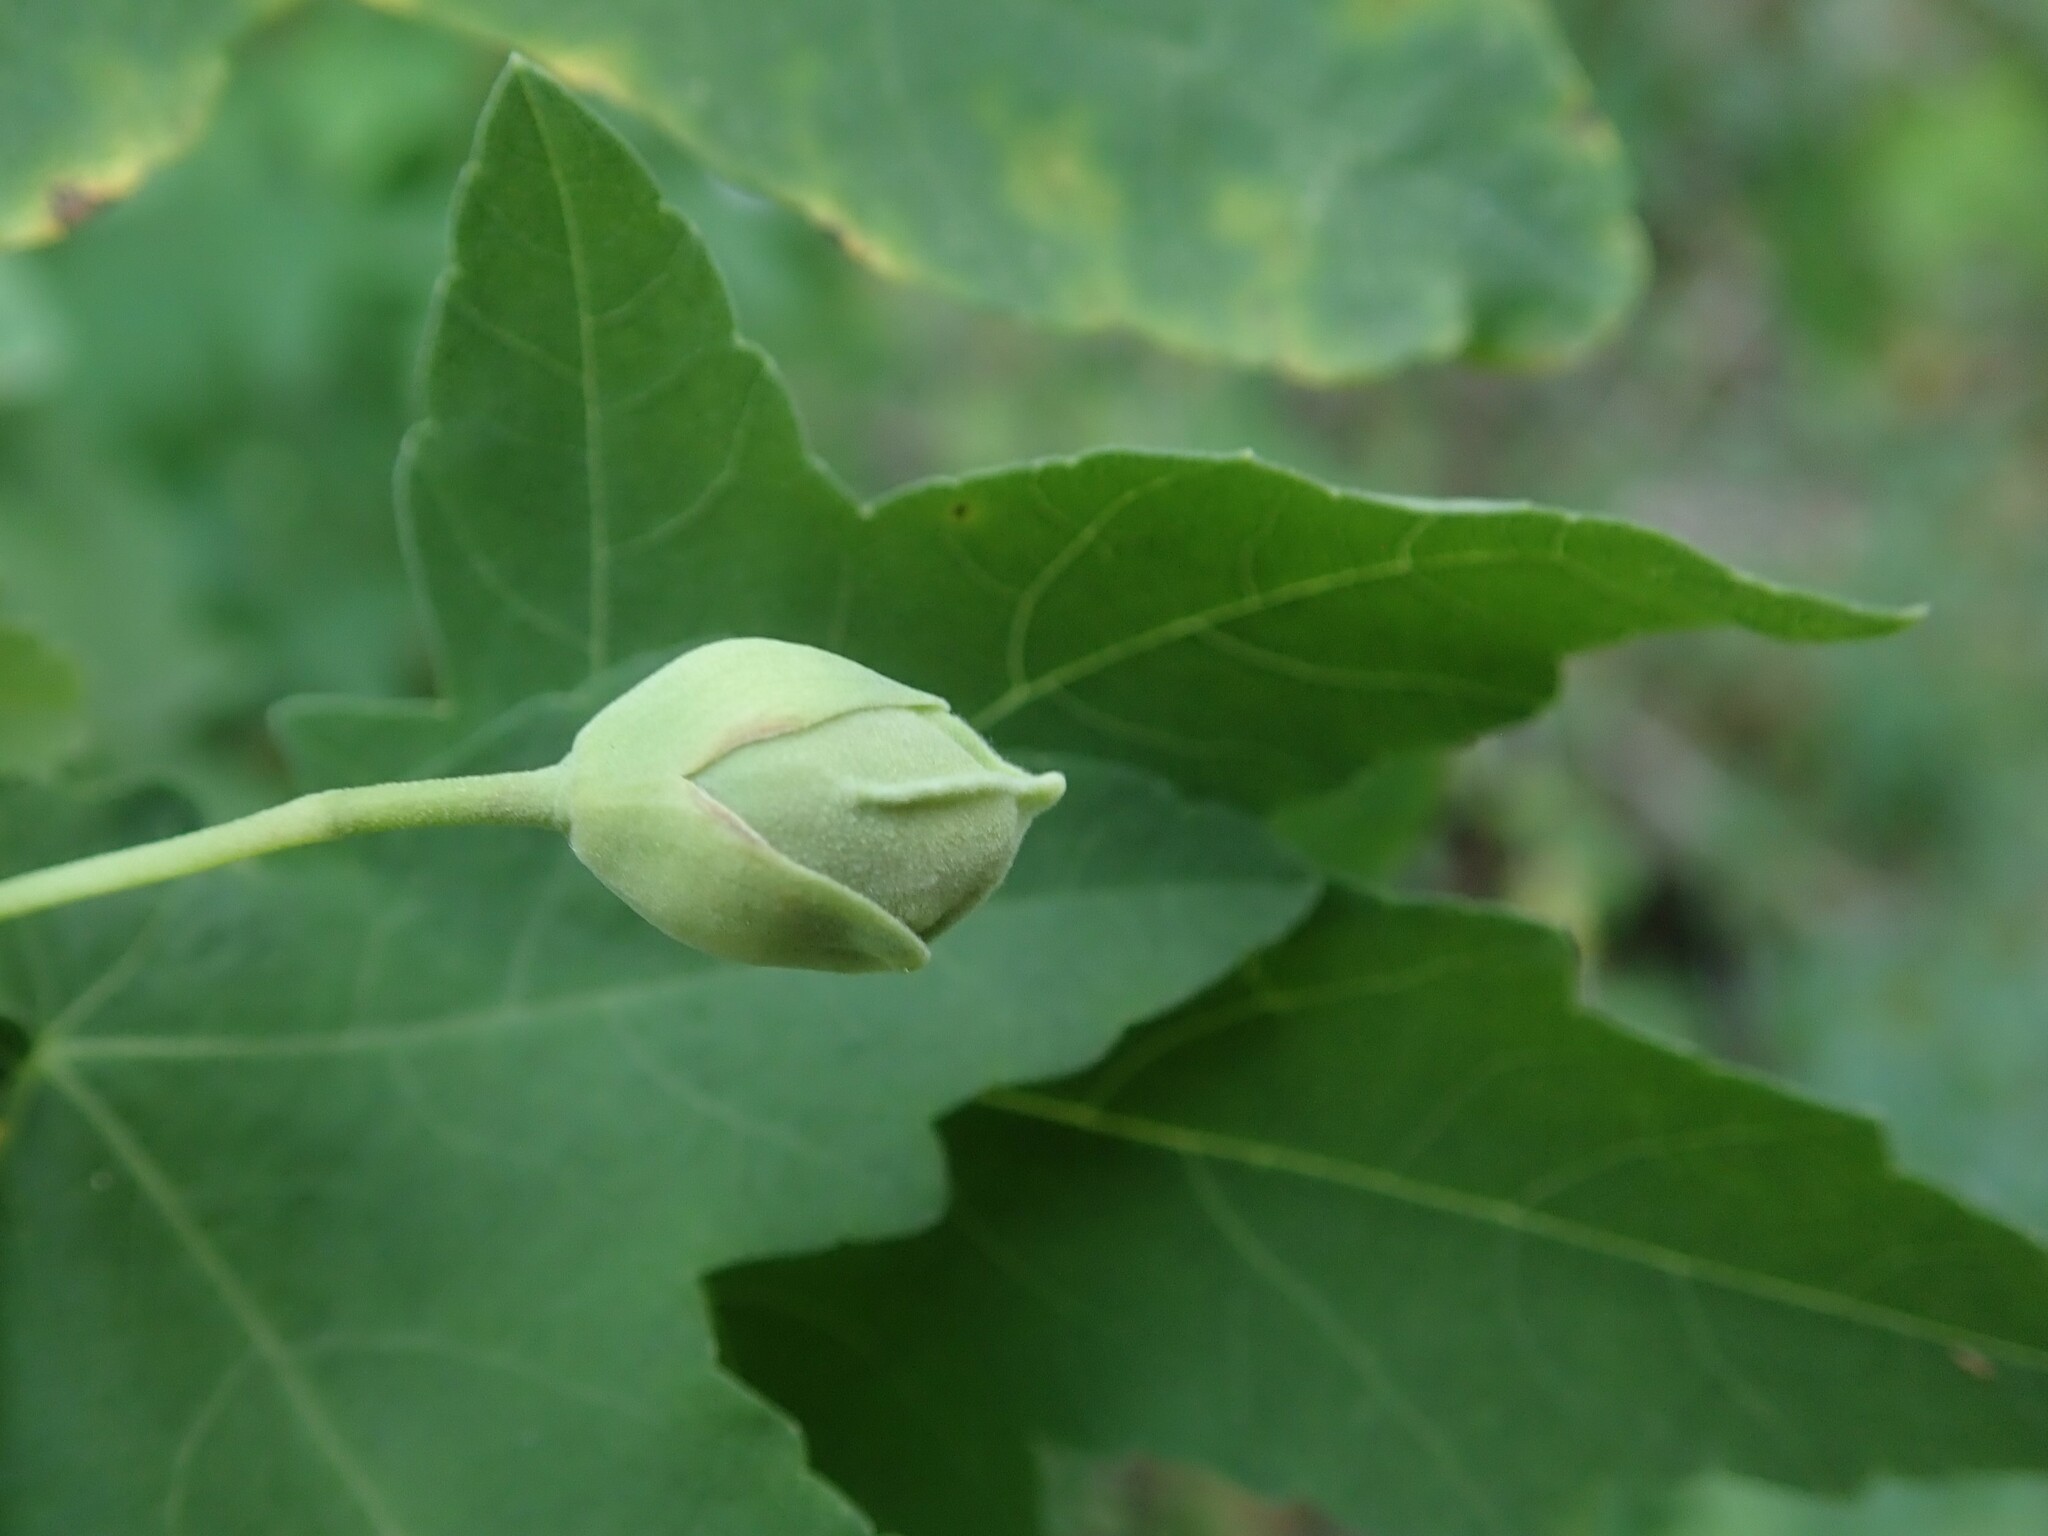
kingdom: Plantae
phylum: Tracheophyta
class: Magnoliopsida
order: Malvales
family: Malvaceae
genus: Malva
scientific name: Malva acerifolia
